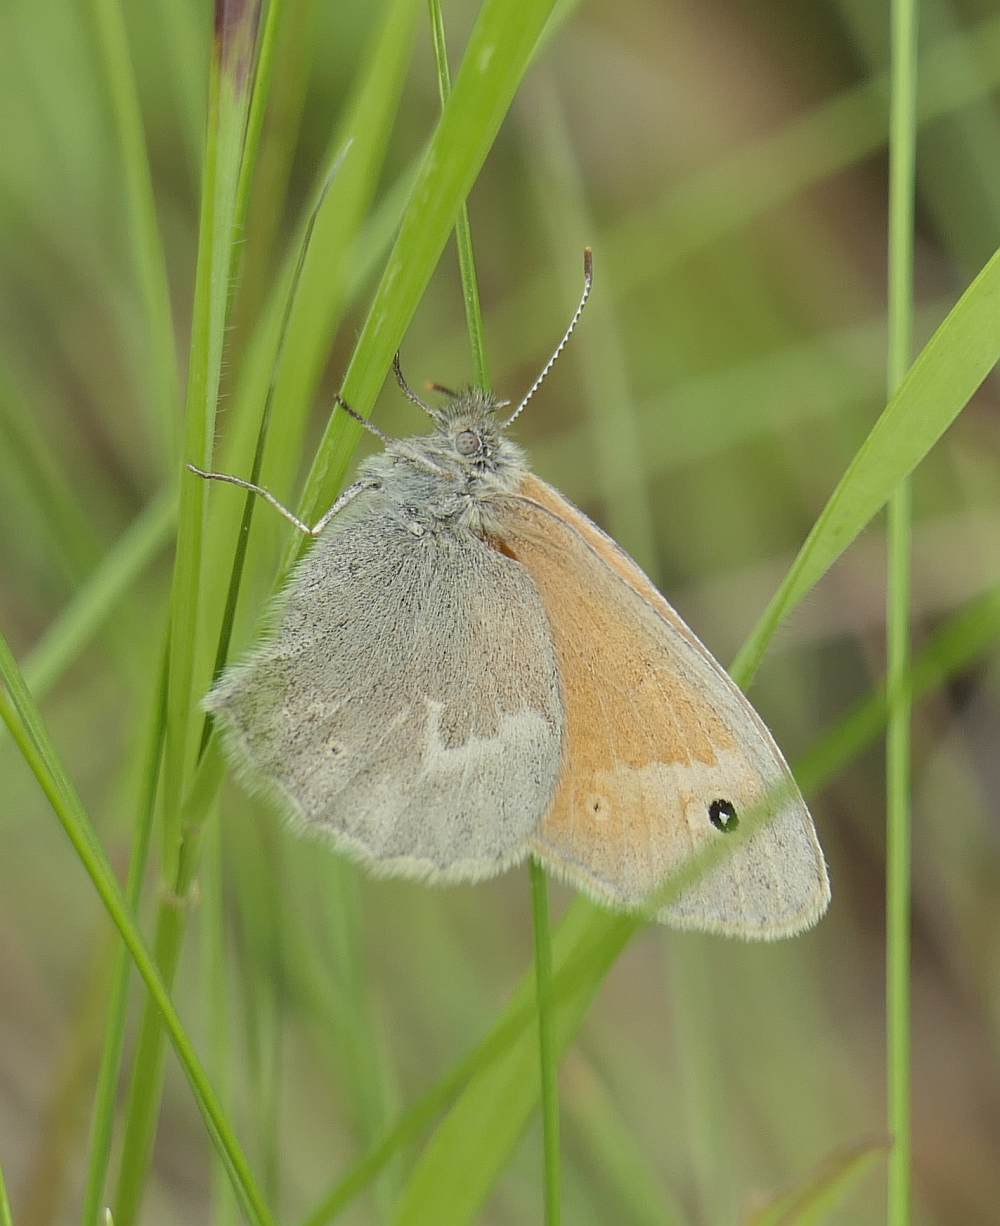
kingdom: Animalia
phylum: Arthropoda
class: Insecta
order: Lepidoptera
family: Nymphalidae
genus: Coenonympha
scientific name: Coenonympha california
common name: Common ringlet
